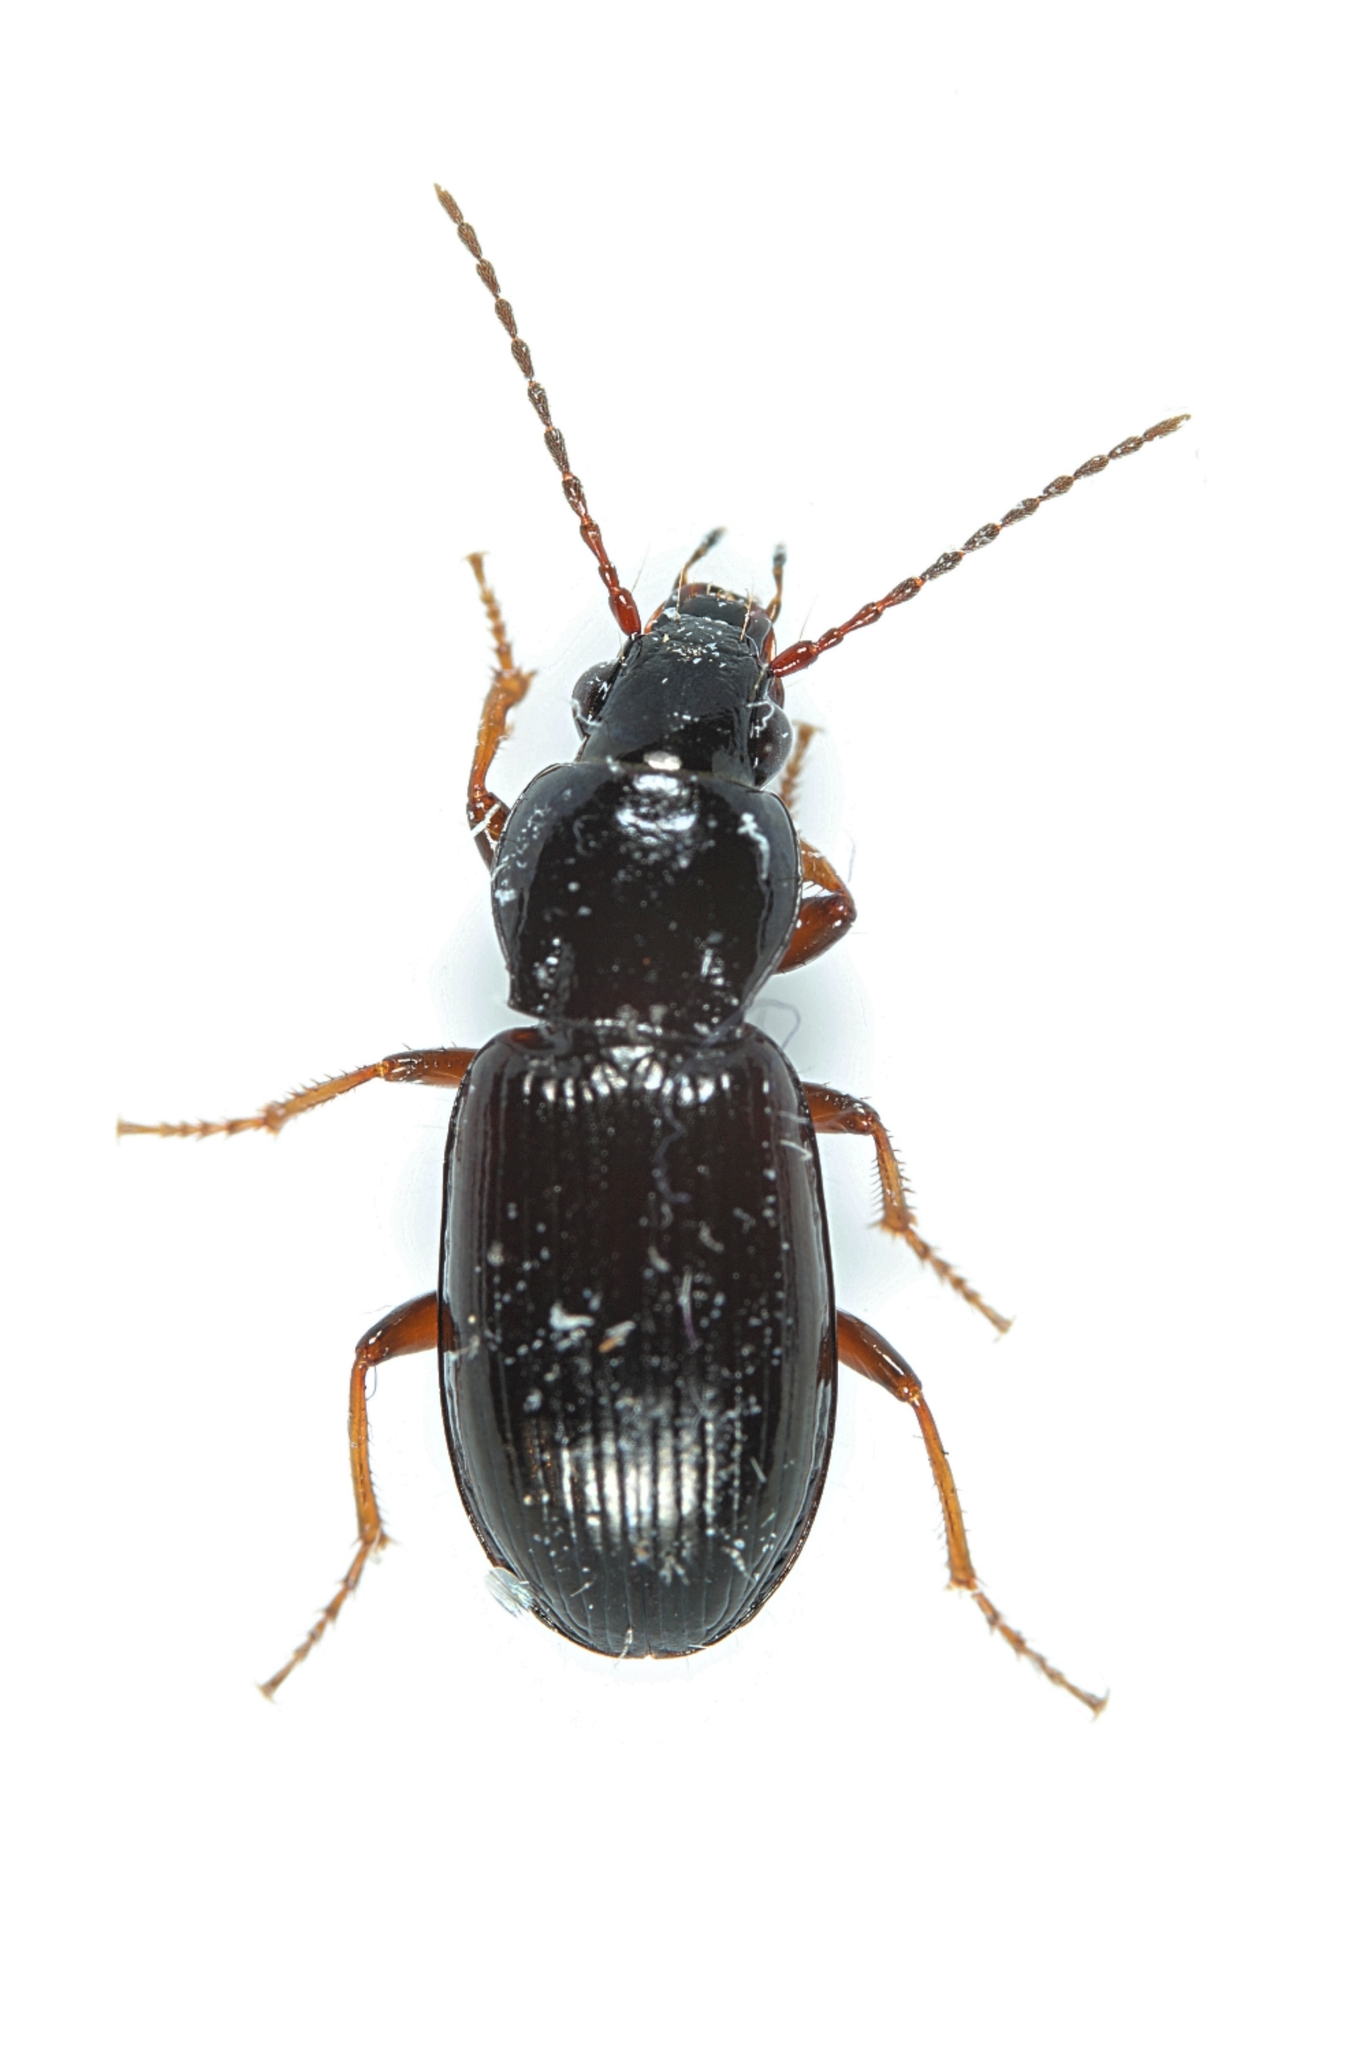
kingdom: Animalia
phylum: Arthropoda
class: Insecta
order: Coleoptera
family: Carabidae
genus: Pterostichus
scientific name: Pterostichus strenuus
